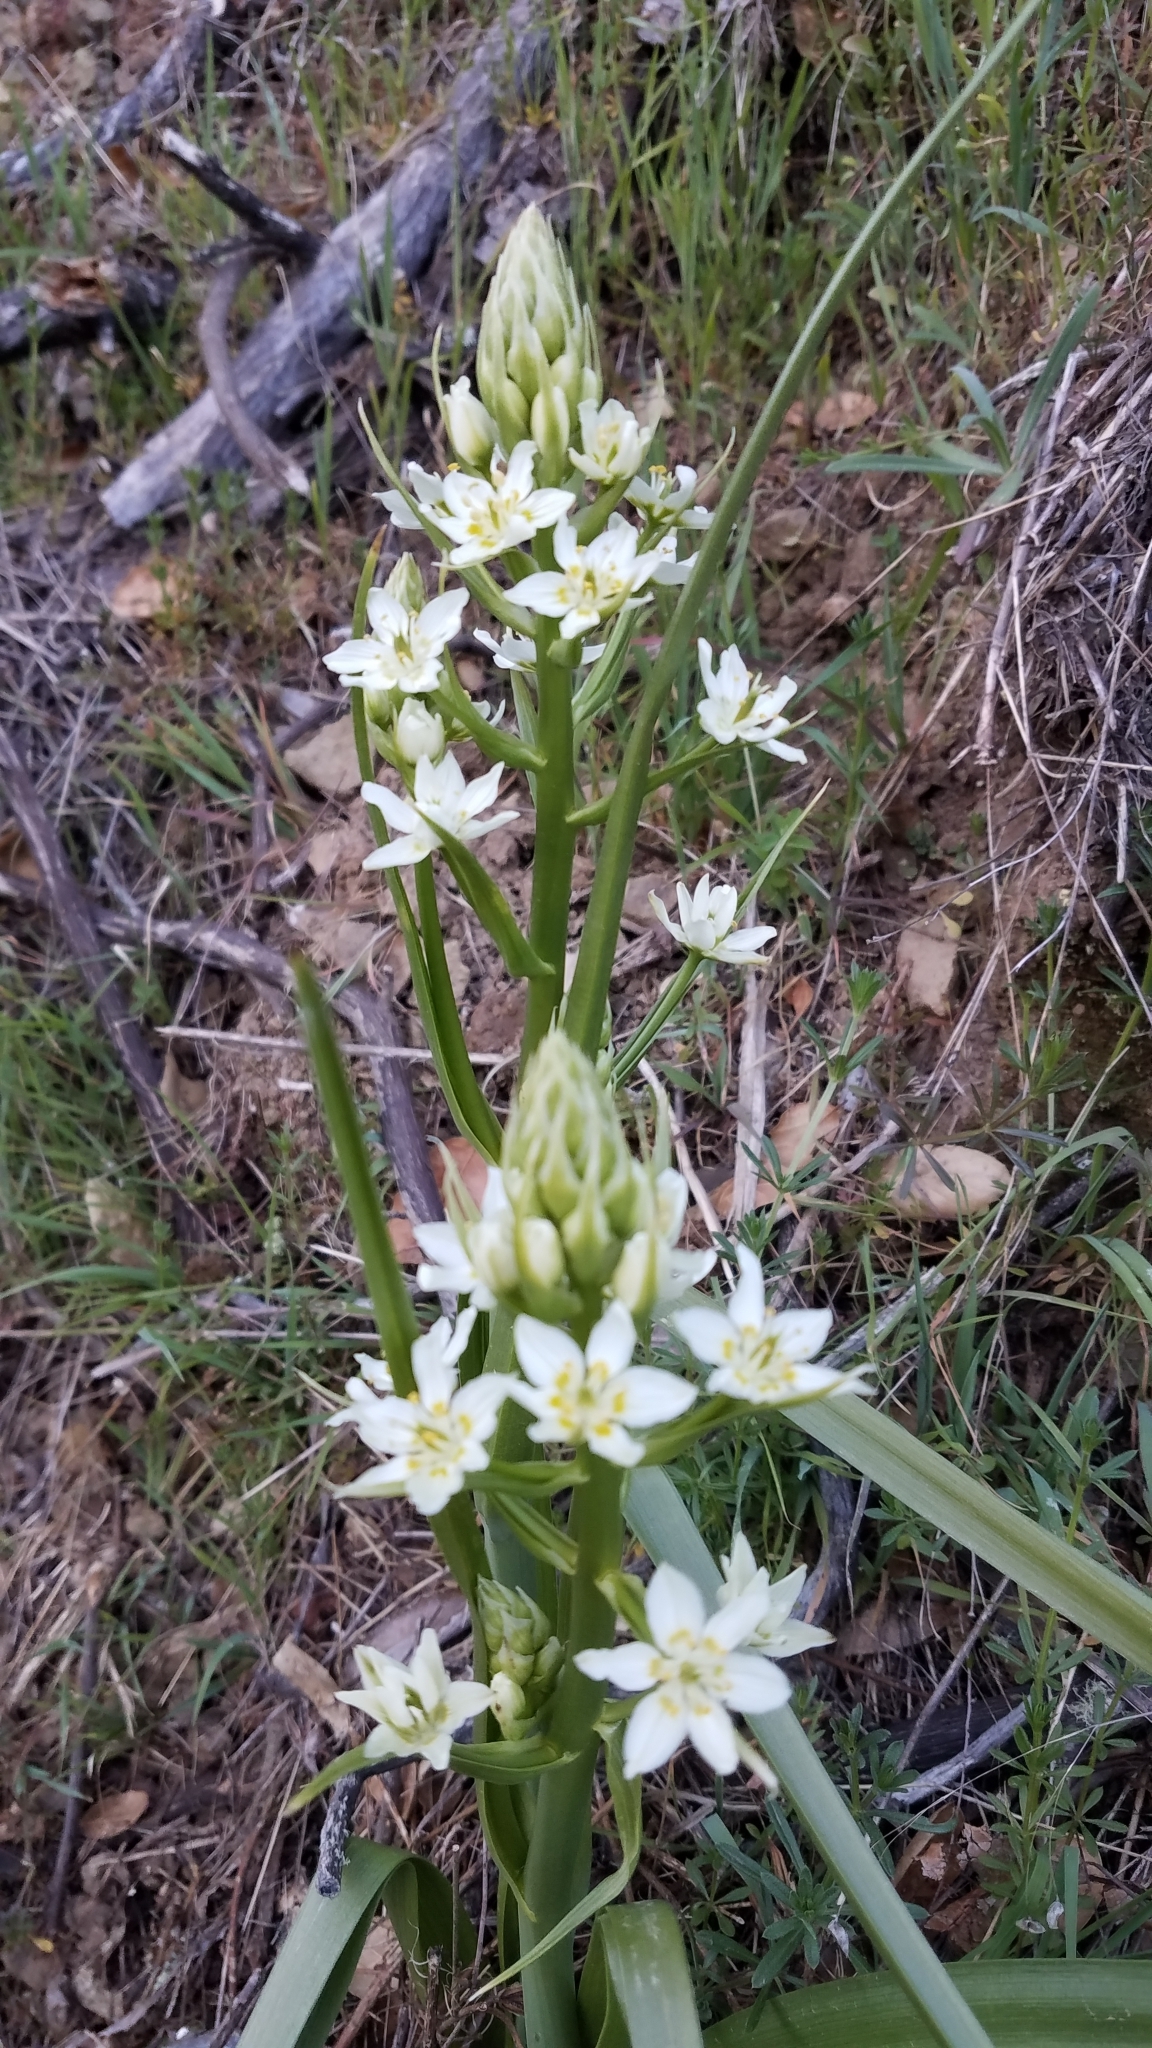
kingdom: Plantae
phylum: Tracheophyta
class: Liliopsida
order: Liliales
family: Melanthiaceae
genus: Toxicoscordion
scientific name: Toxicoscordion fremontii
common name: Fremont's death camas
